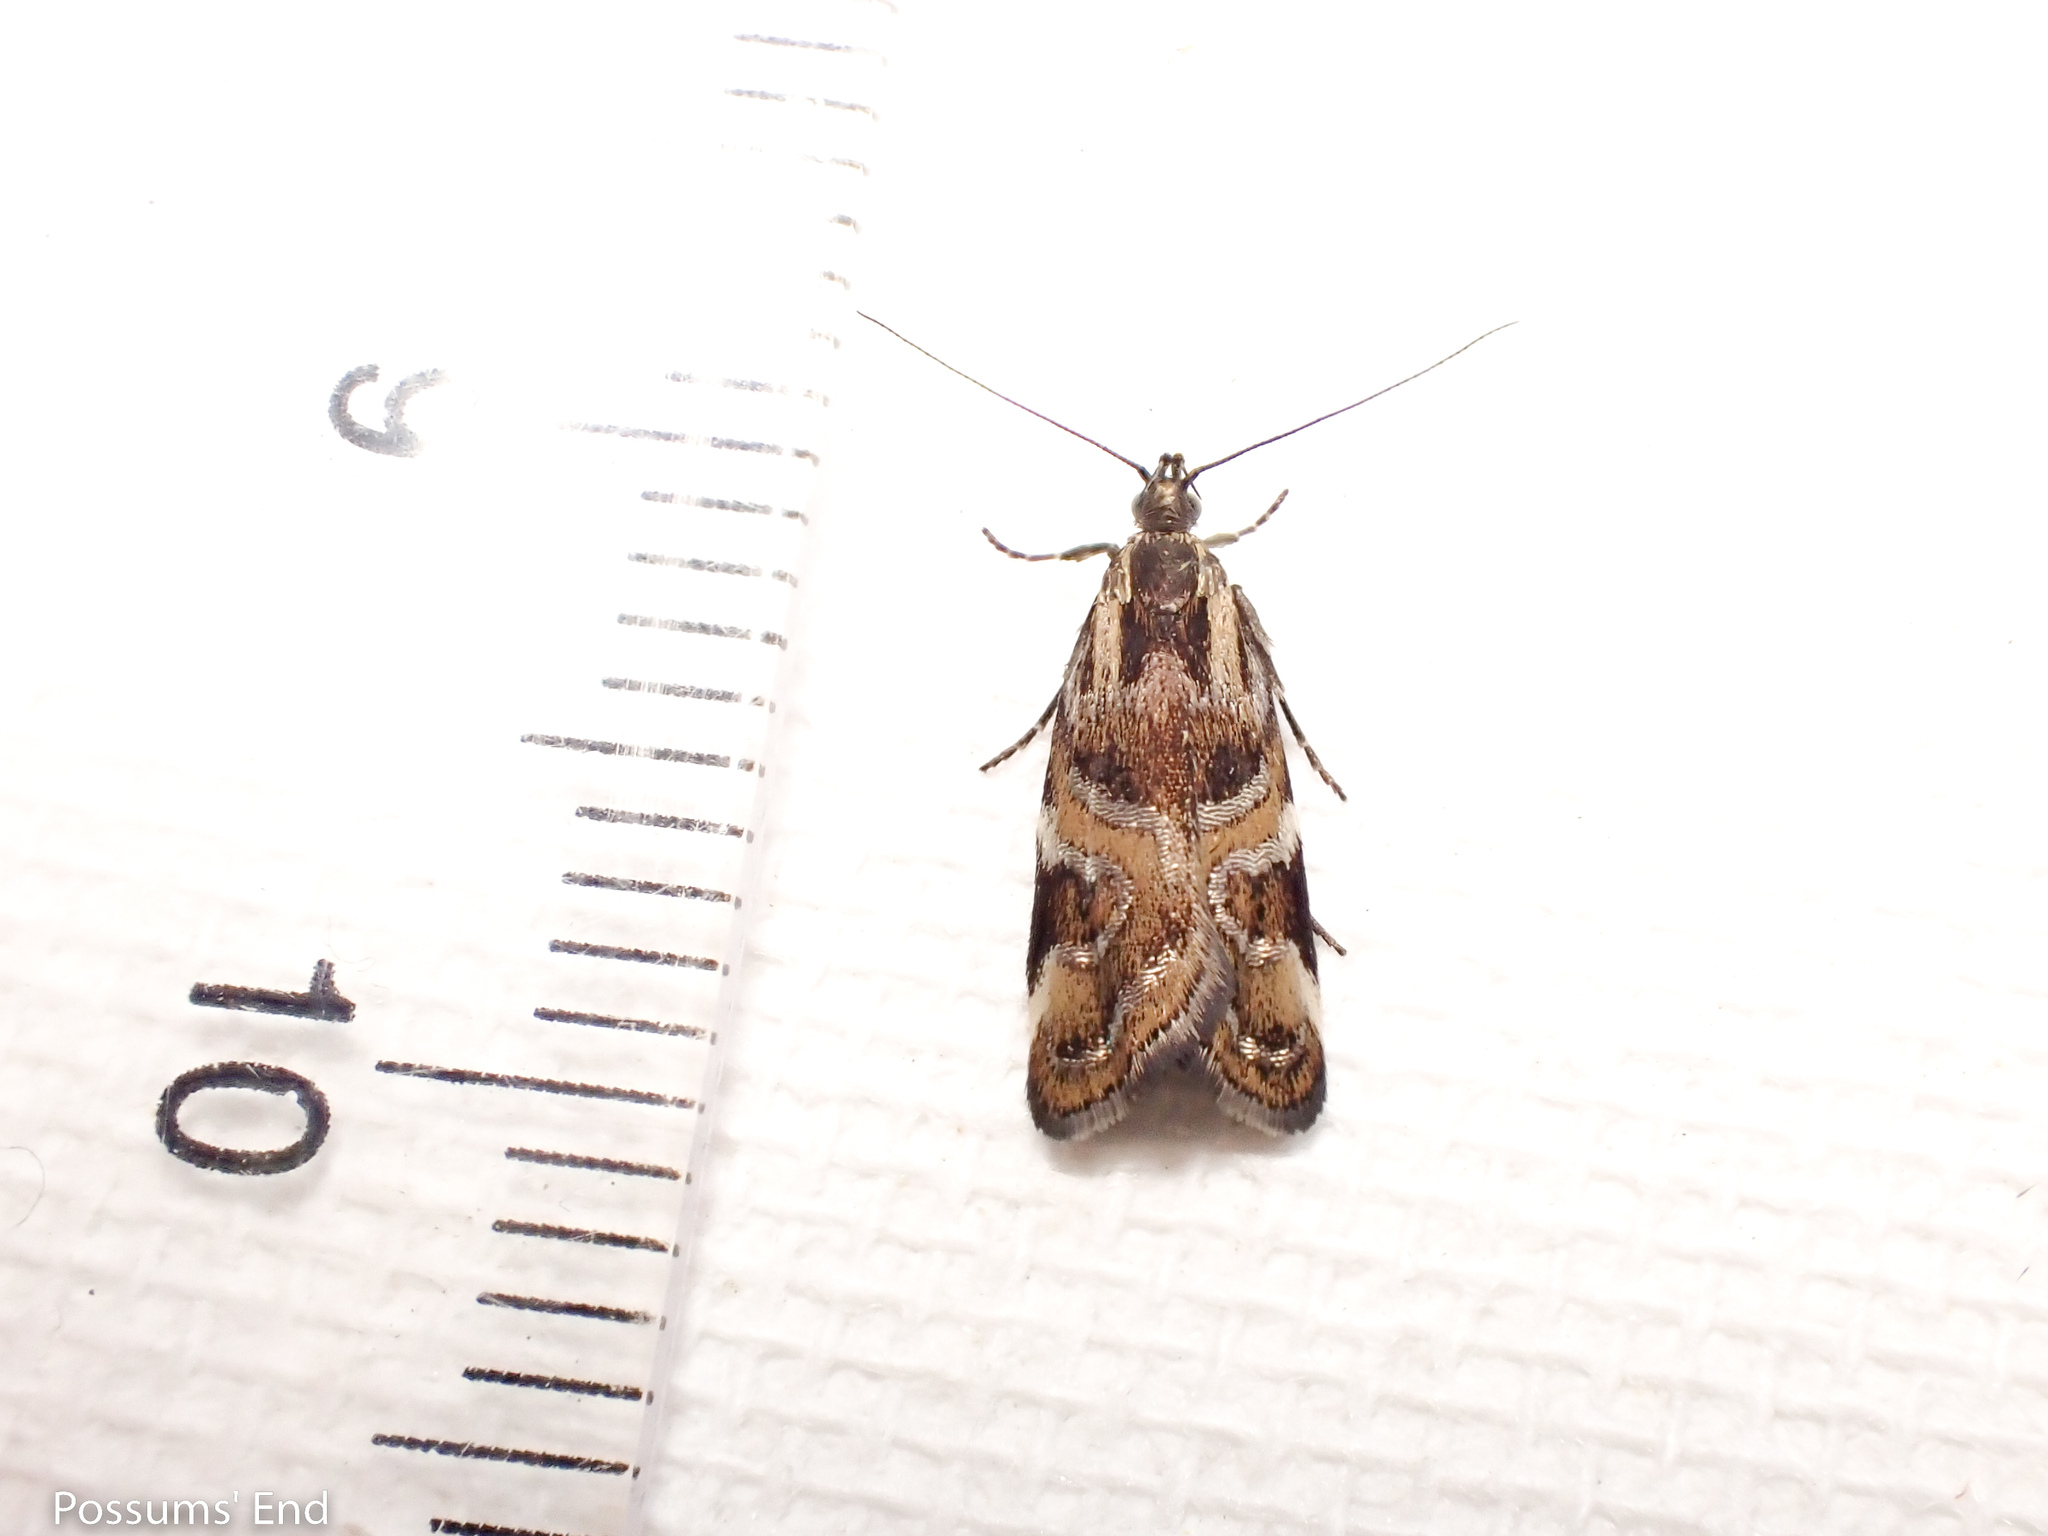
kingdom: Animalia
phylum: Arthropoda
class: Insecta
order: Lepidoptera
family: Oecophoridae
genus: Hierodoris
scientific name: Hierodoris s-fractum
